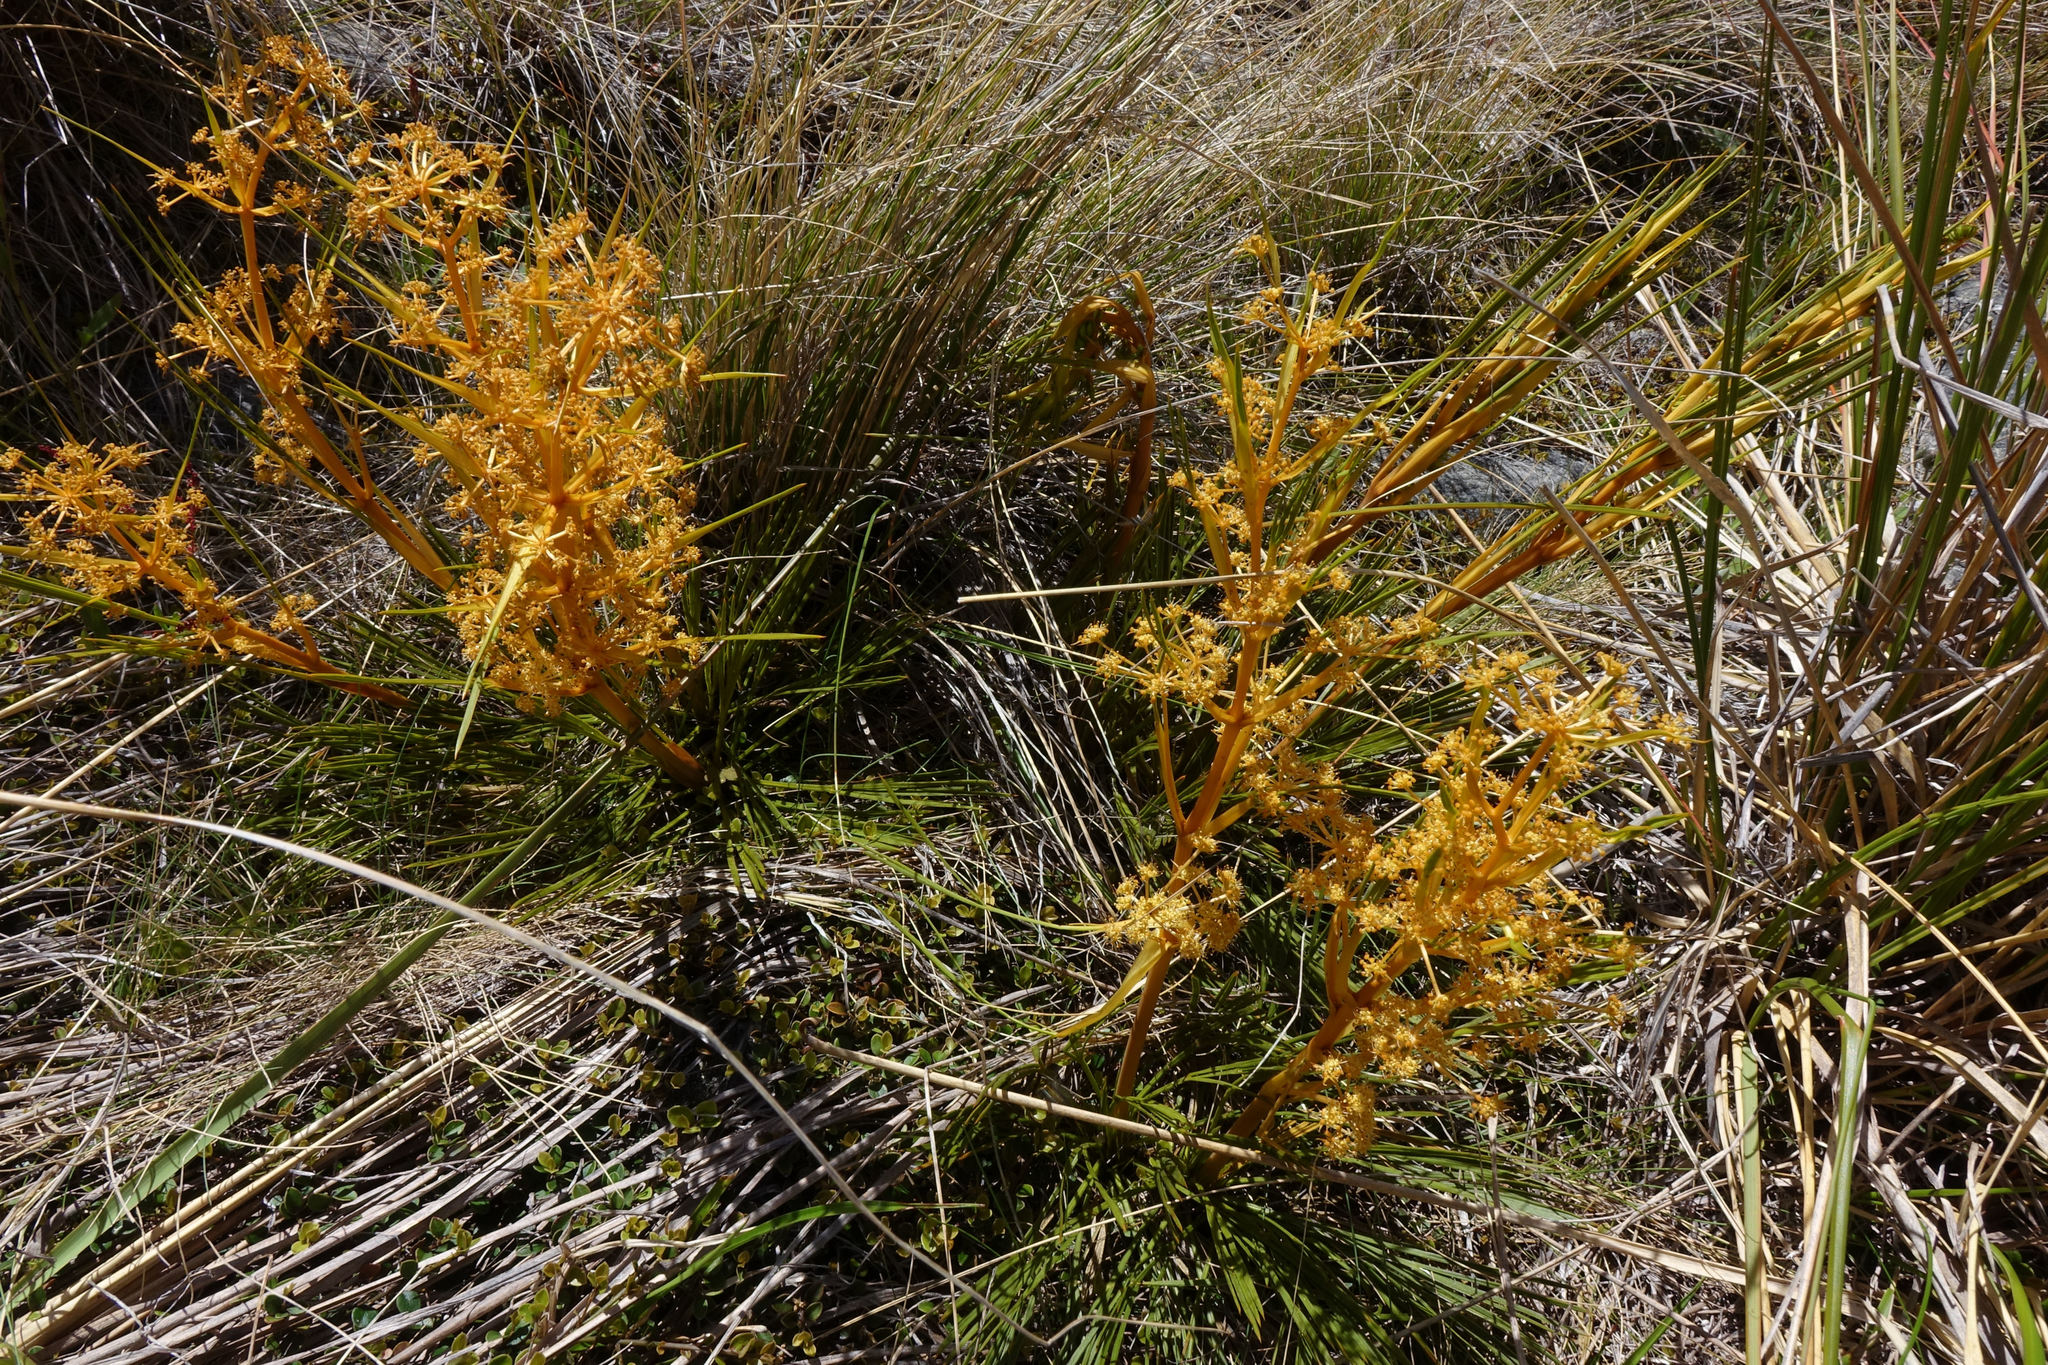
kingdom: Plantae
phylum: Tracheophyta
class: Magnoliopsida
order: Apiales
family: Apiaceae
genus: Aciphylla
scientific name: Aciphylla montana
